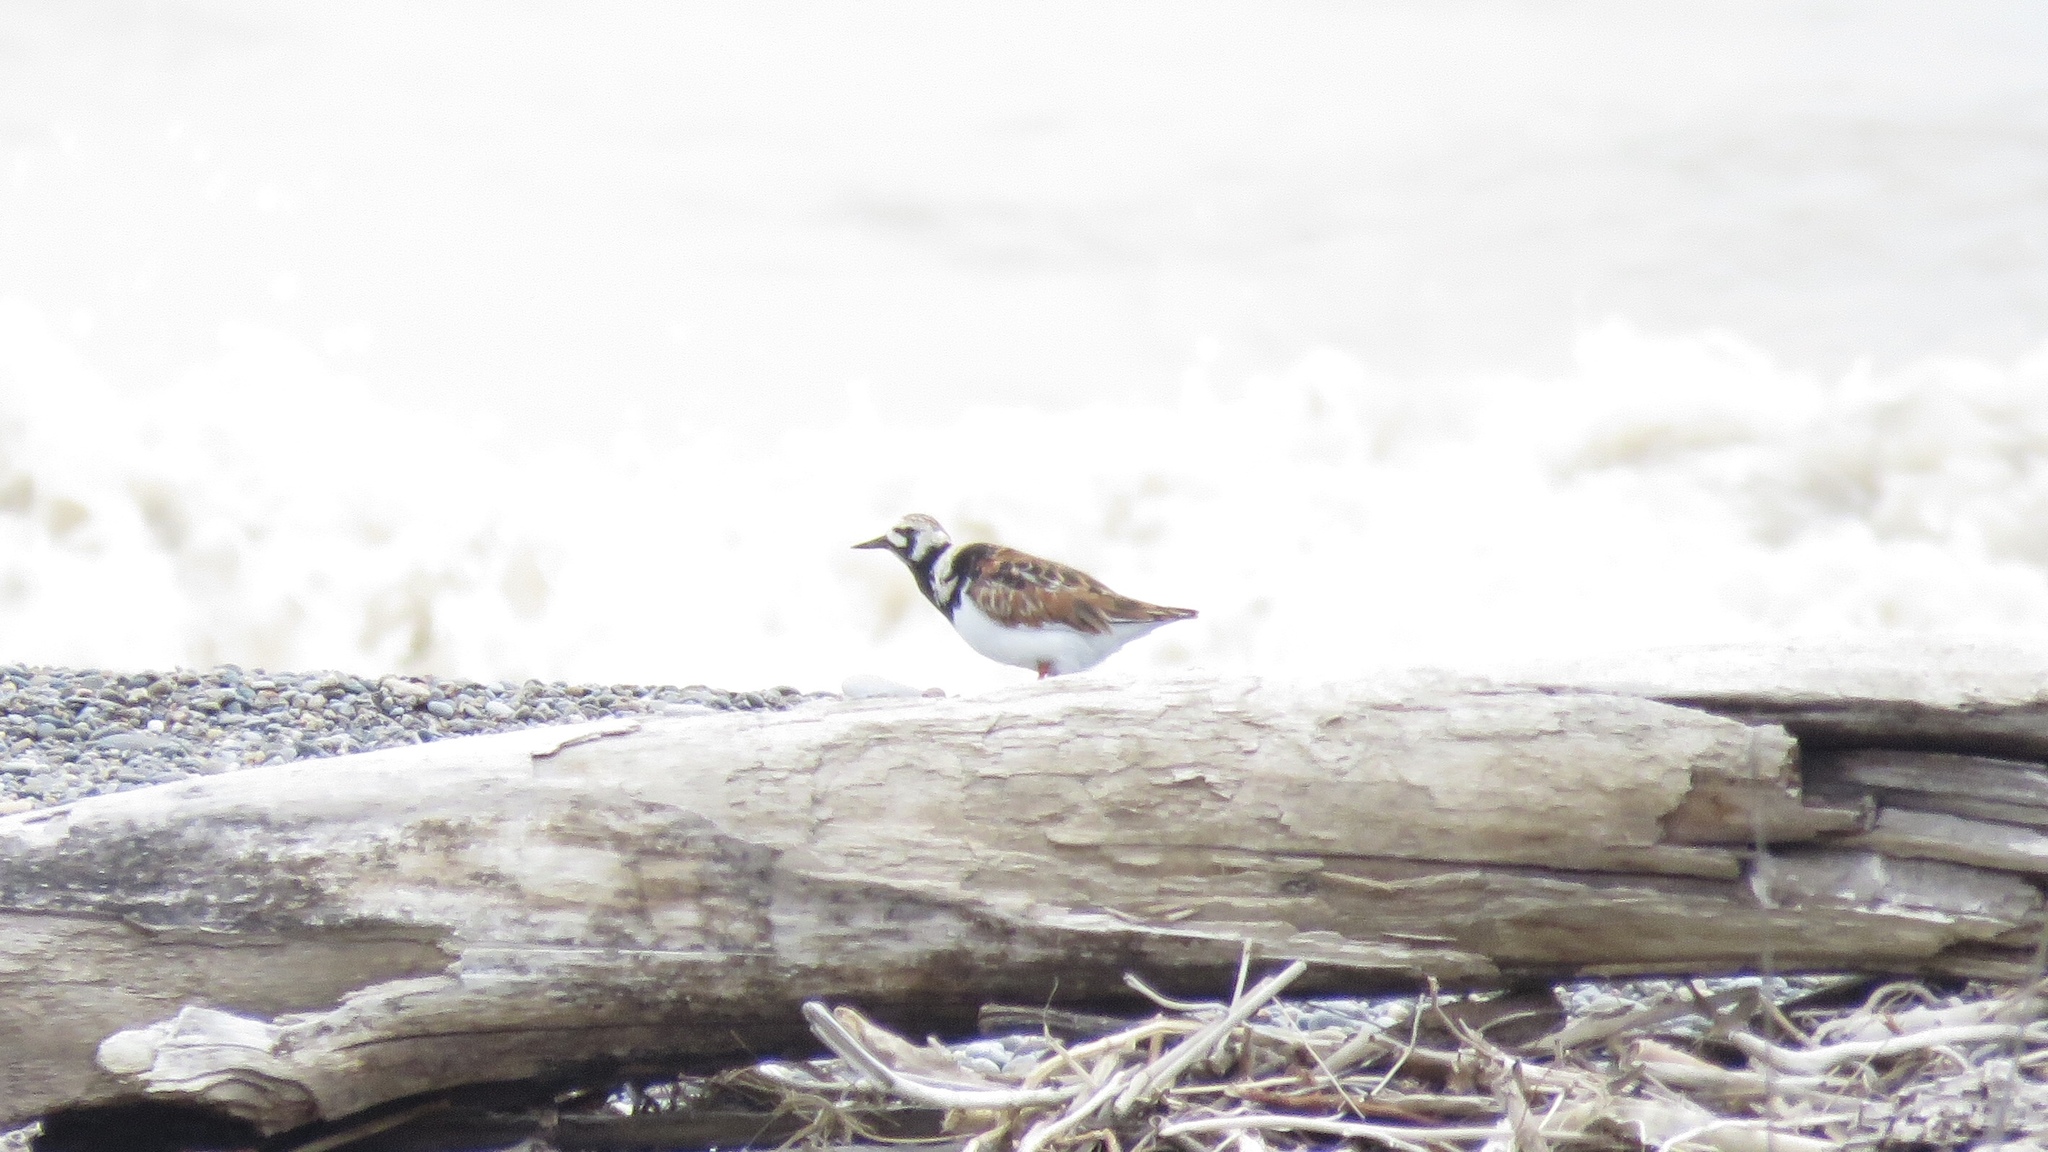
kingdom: Animalia
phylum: Chordata
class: Aves
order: Charadriiformes
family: Scolopacidae
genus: Arenaria
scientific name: Arenaria interpres
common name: Ruddy turnstone
